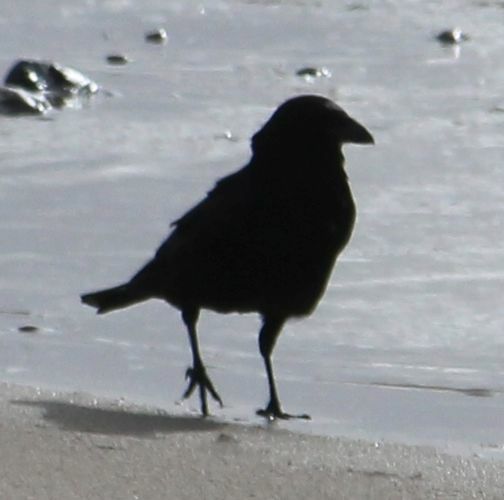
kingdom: Animalia
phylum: Chordata
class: Aves
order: Passeriformes
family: Corvidae
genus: Corvus
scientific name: Corvus corone
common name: Carrion crow
